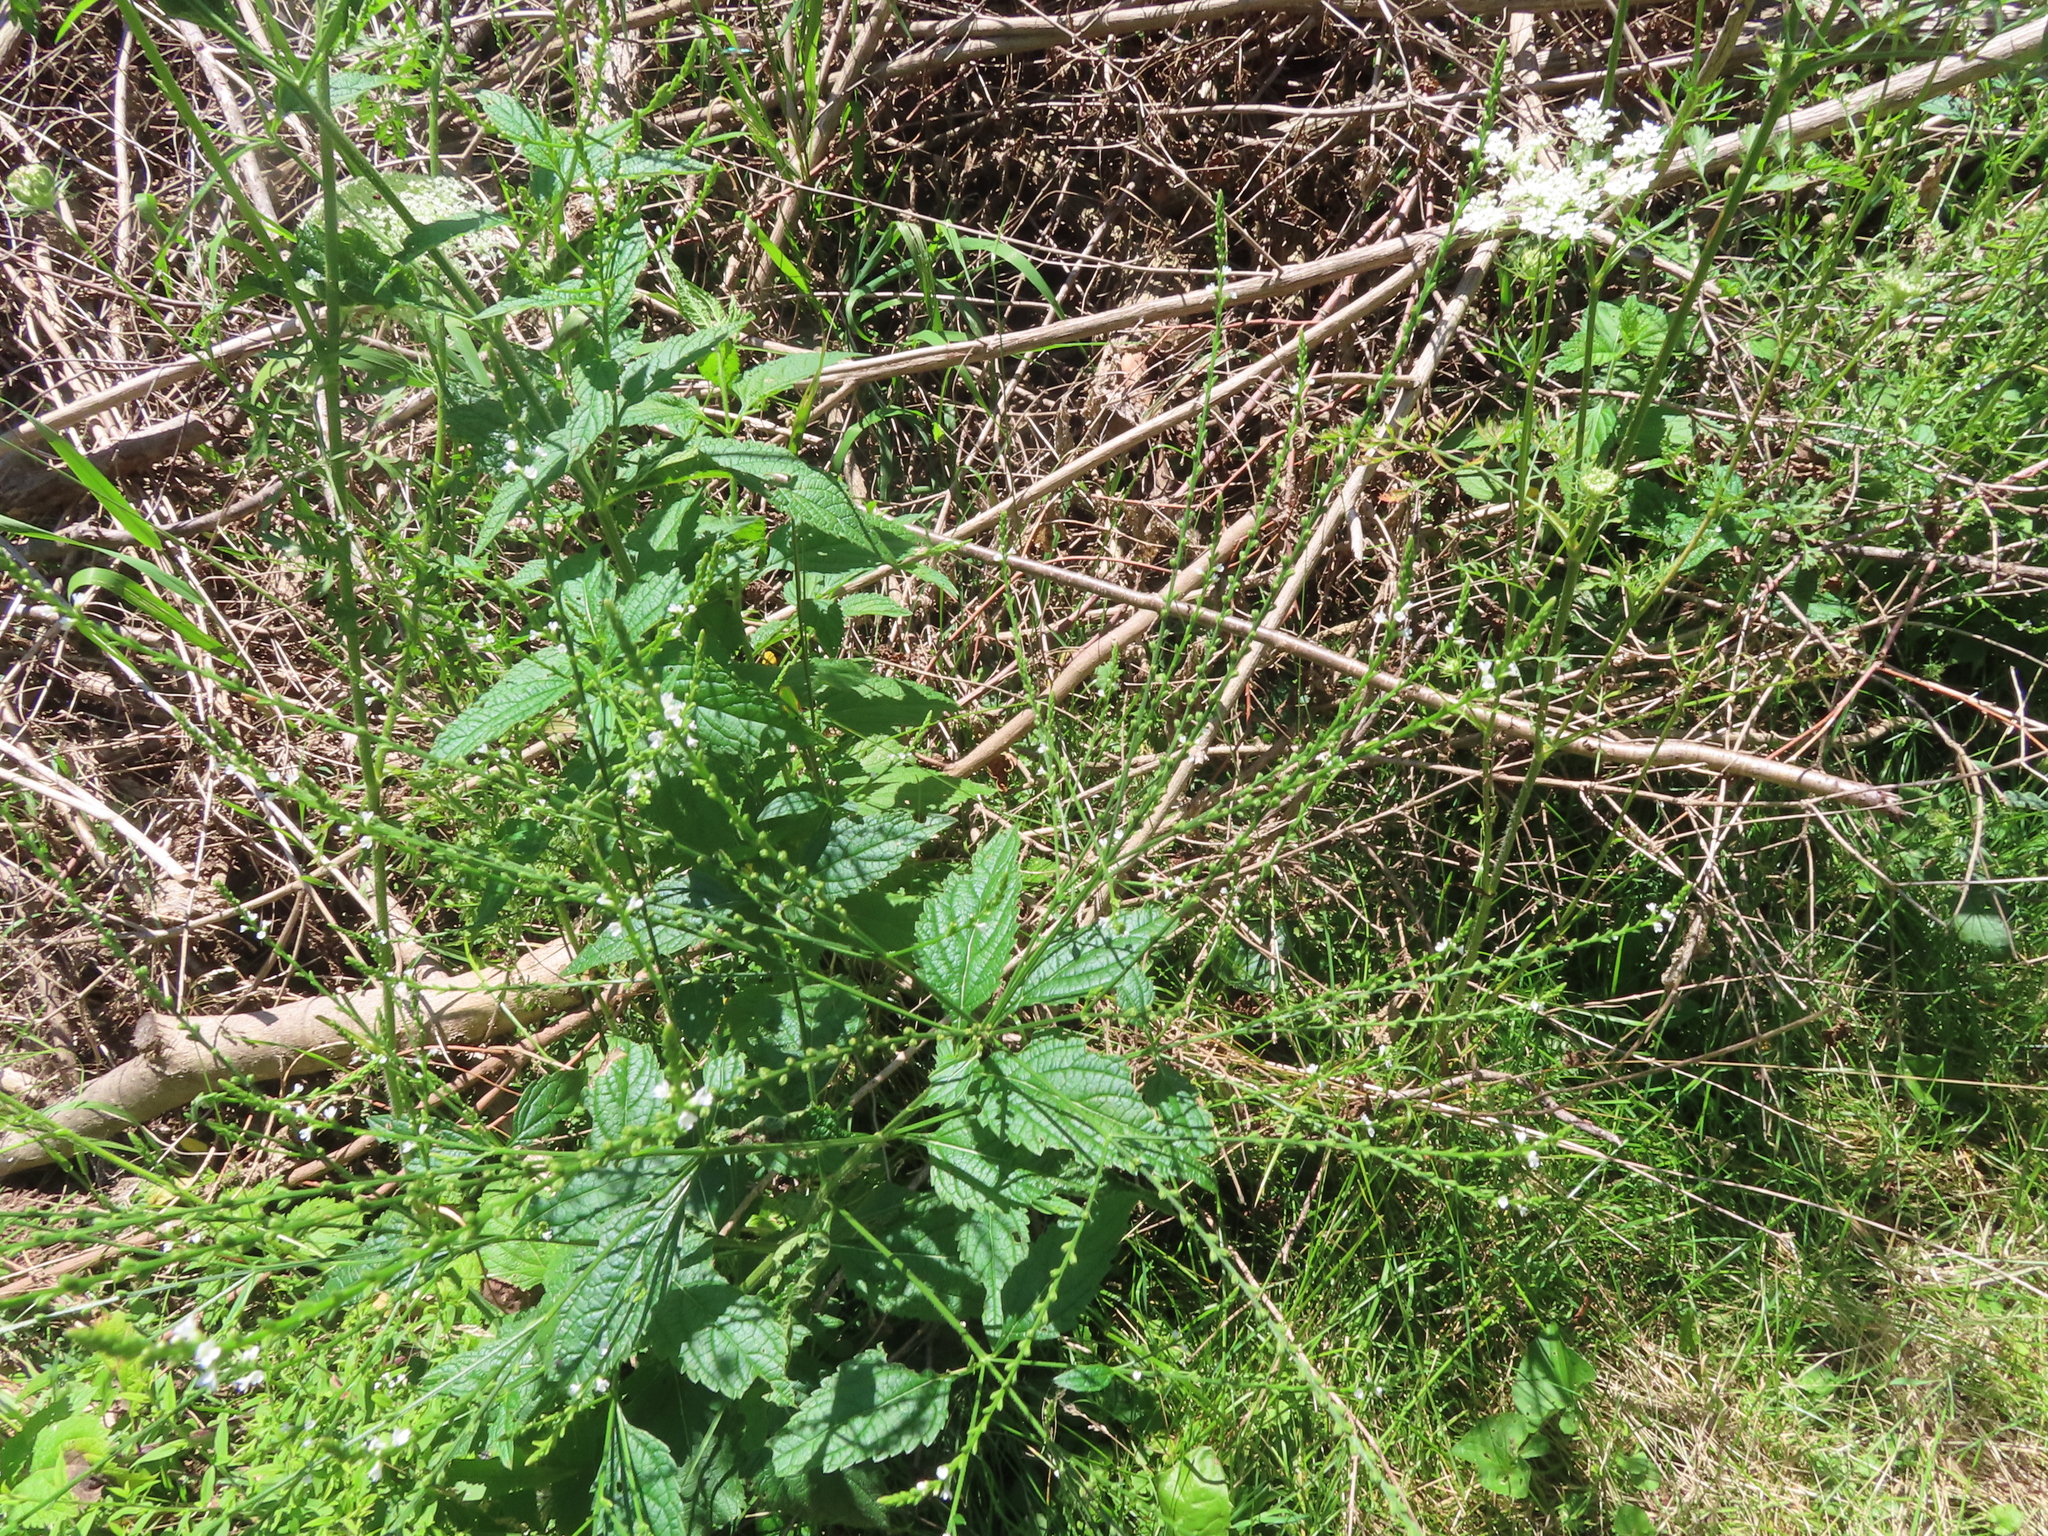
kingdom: Plantae
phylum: Tracheophyta
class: Magnoliopsida
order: Lamiales
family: Verbenaceae
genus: Verbena
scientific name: Verbena urticifolia
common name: Nettle-leaved vervain
